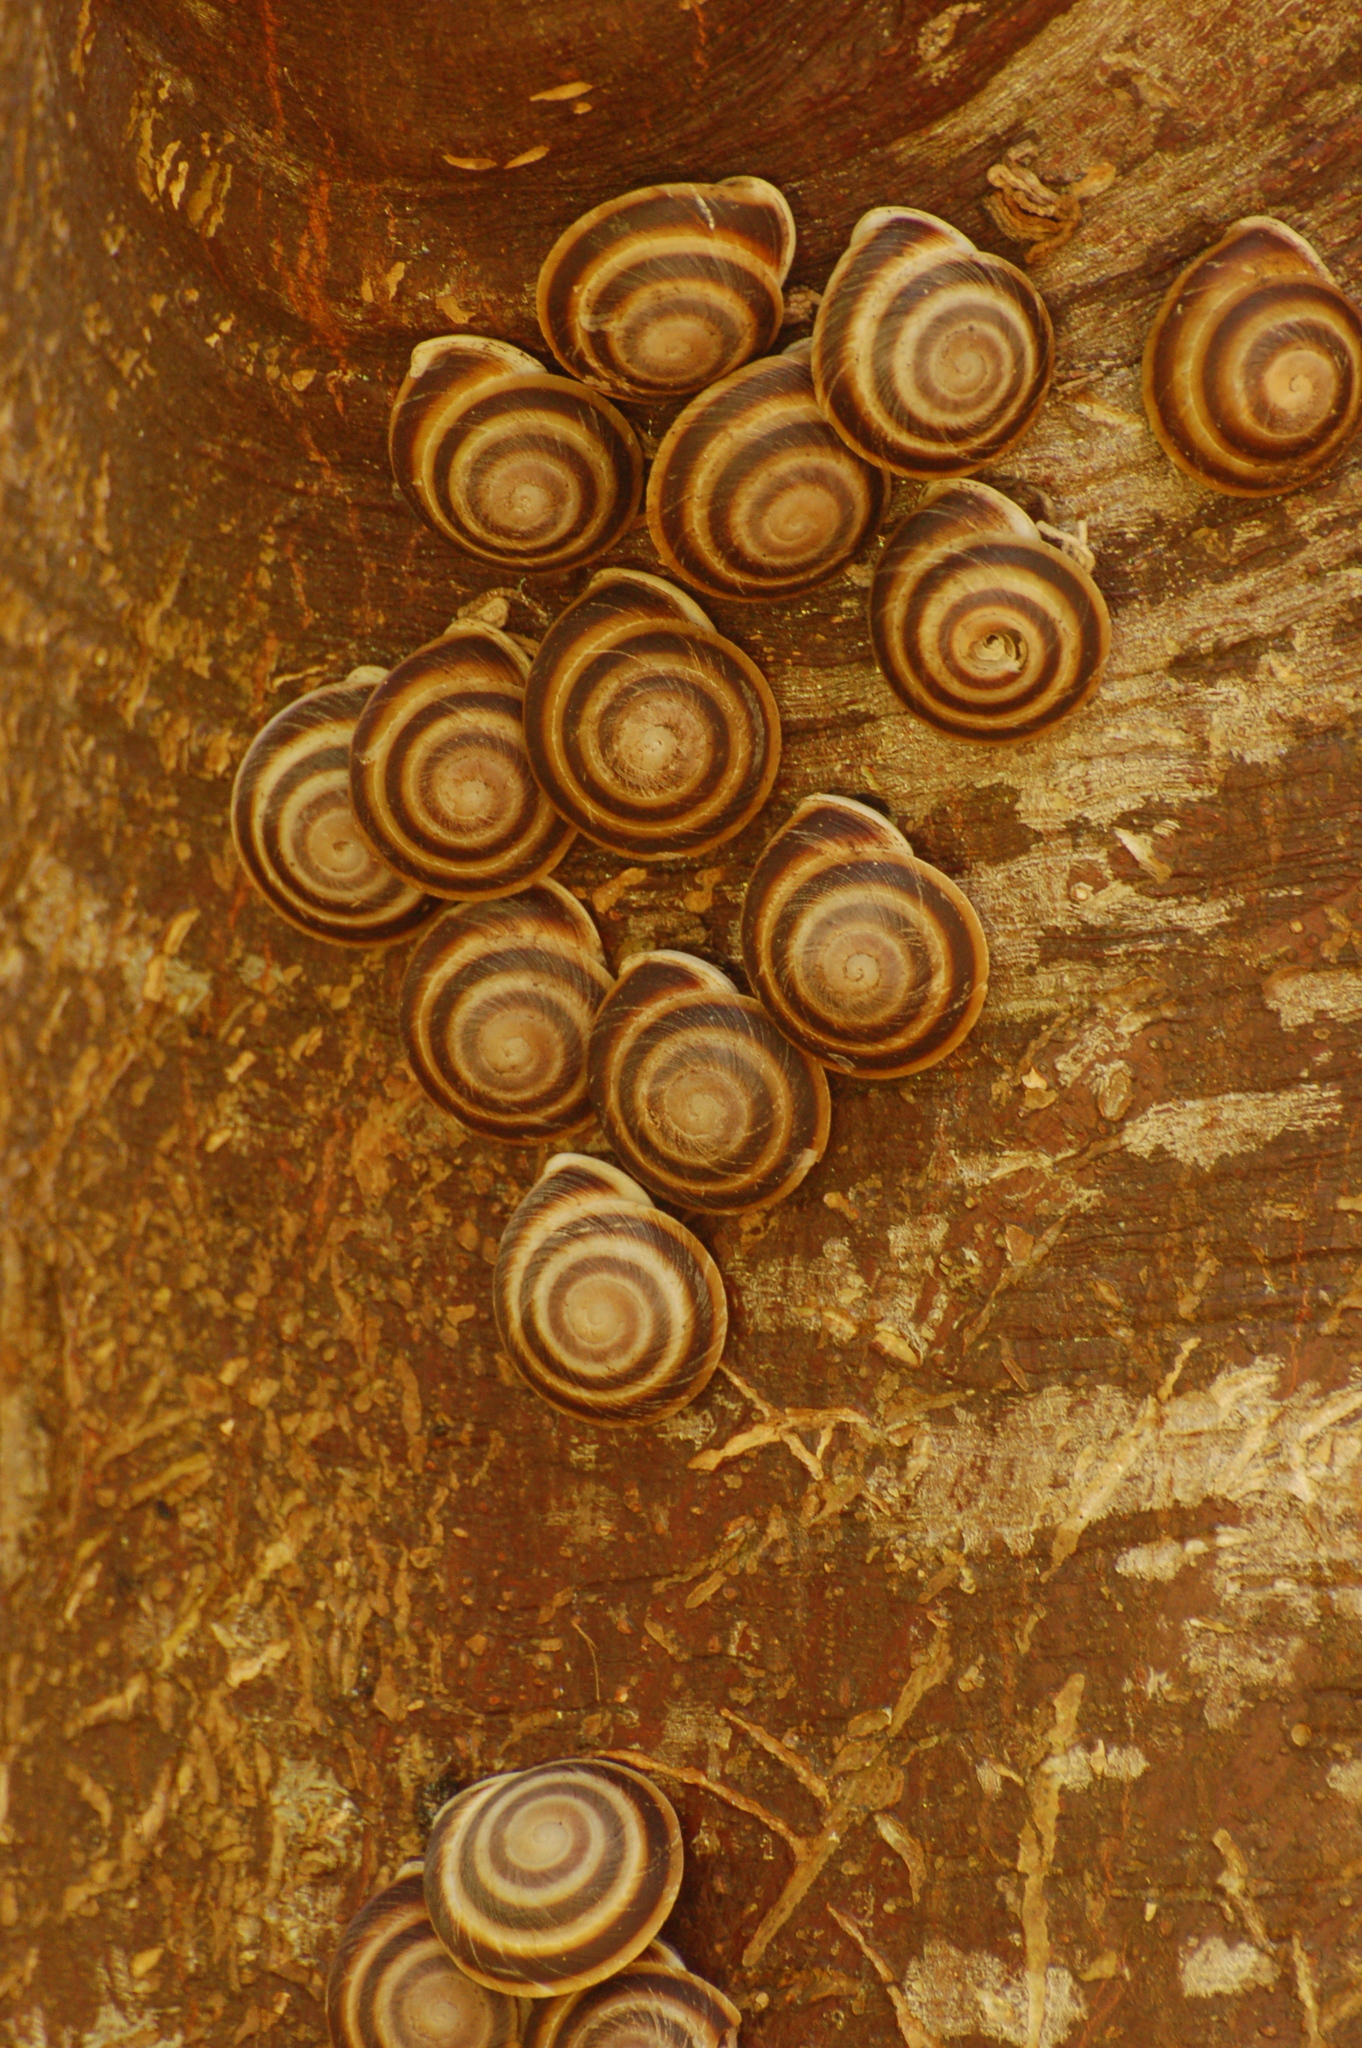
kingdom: Animalia
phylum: Mollusca
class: Gastropoda
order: Stylommatophora
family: Solaropsidae
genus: Caracolus
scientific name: Caracolus marginella
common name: Banded caracol
